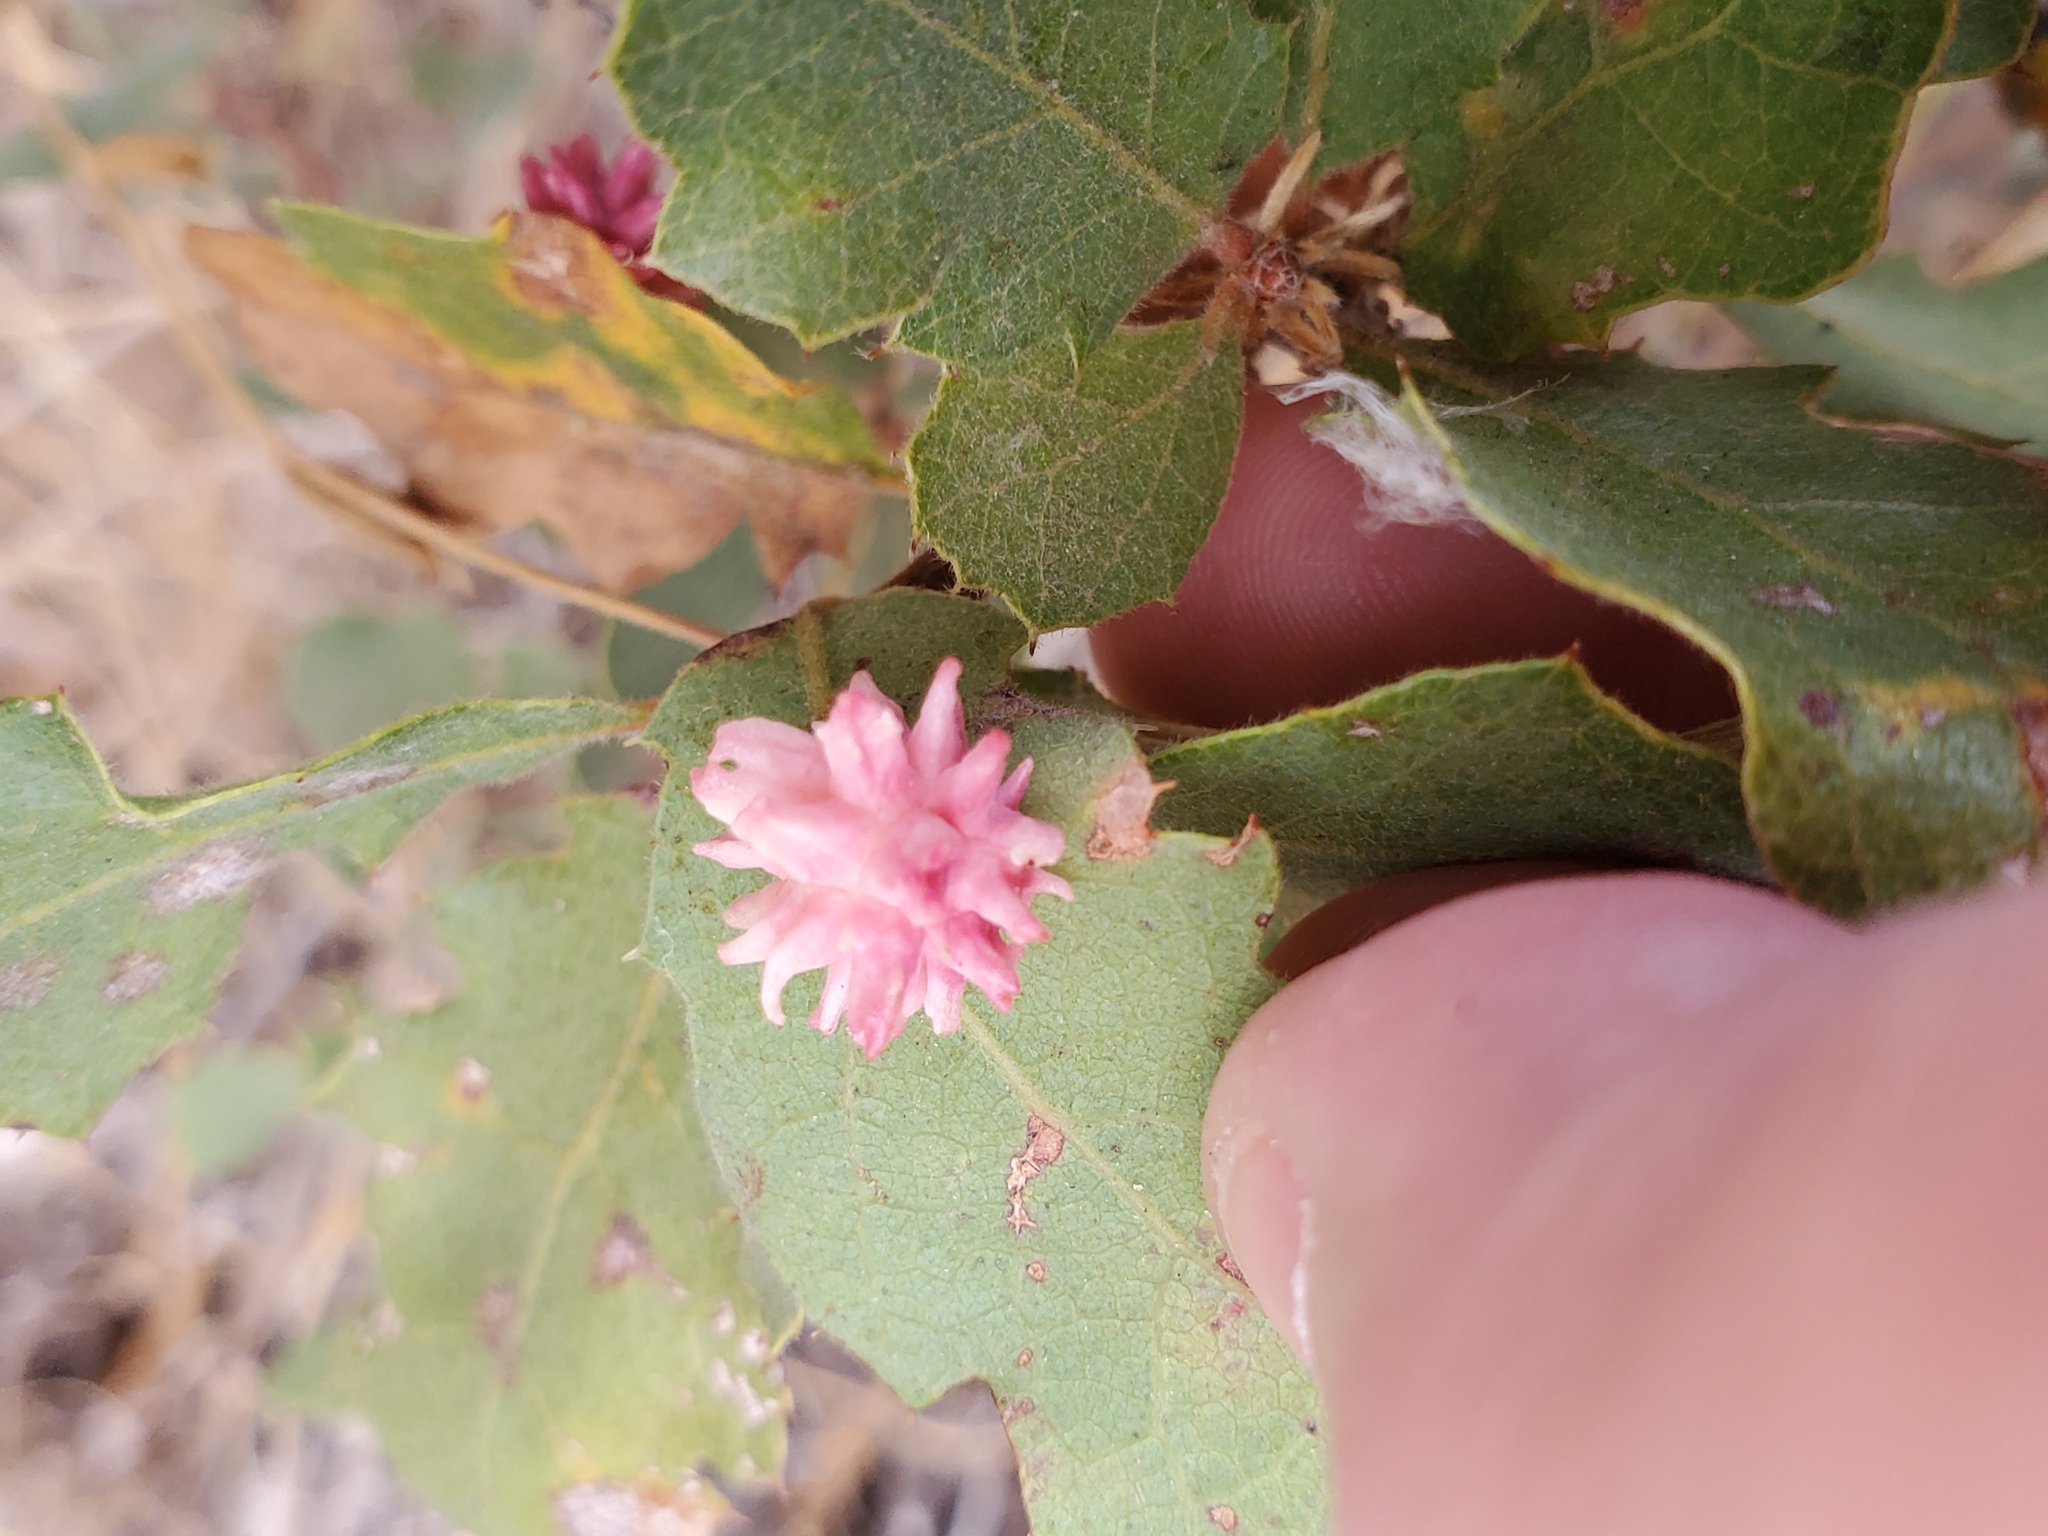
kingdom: Animalia
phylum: Arthropoda
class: Insecta
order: Hymenoptera
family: Cynipidae
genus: Cynips
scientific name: Cynips
